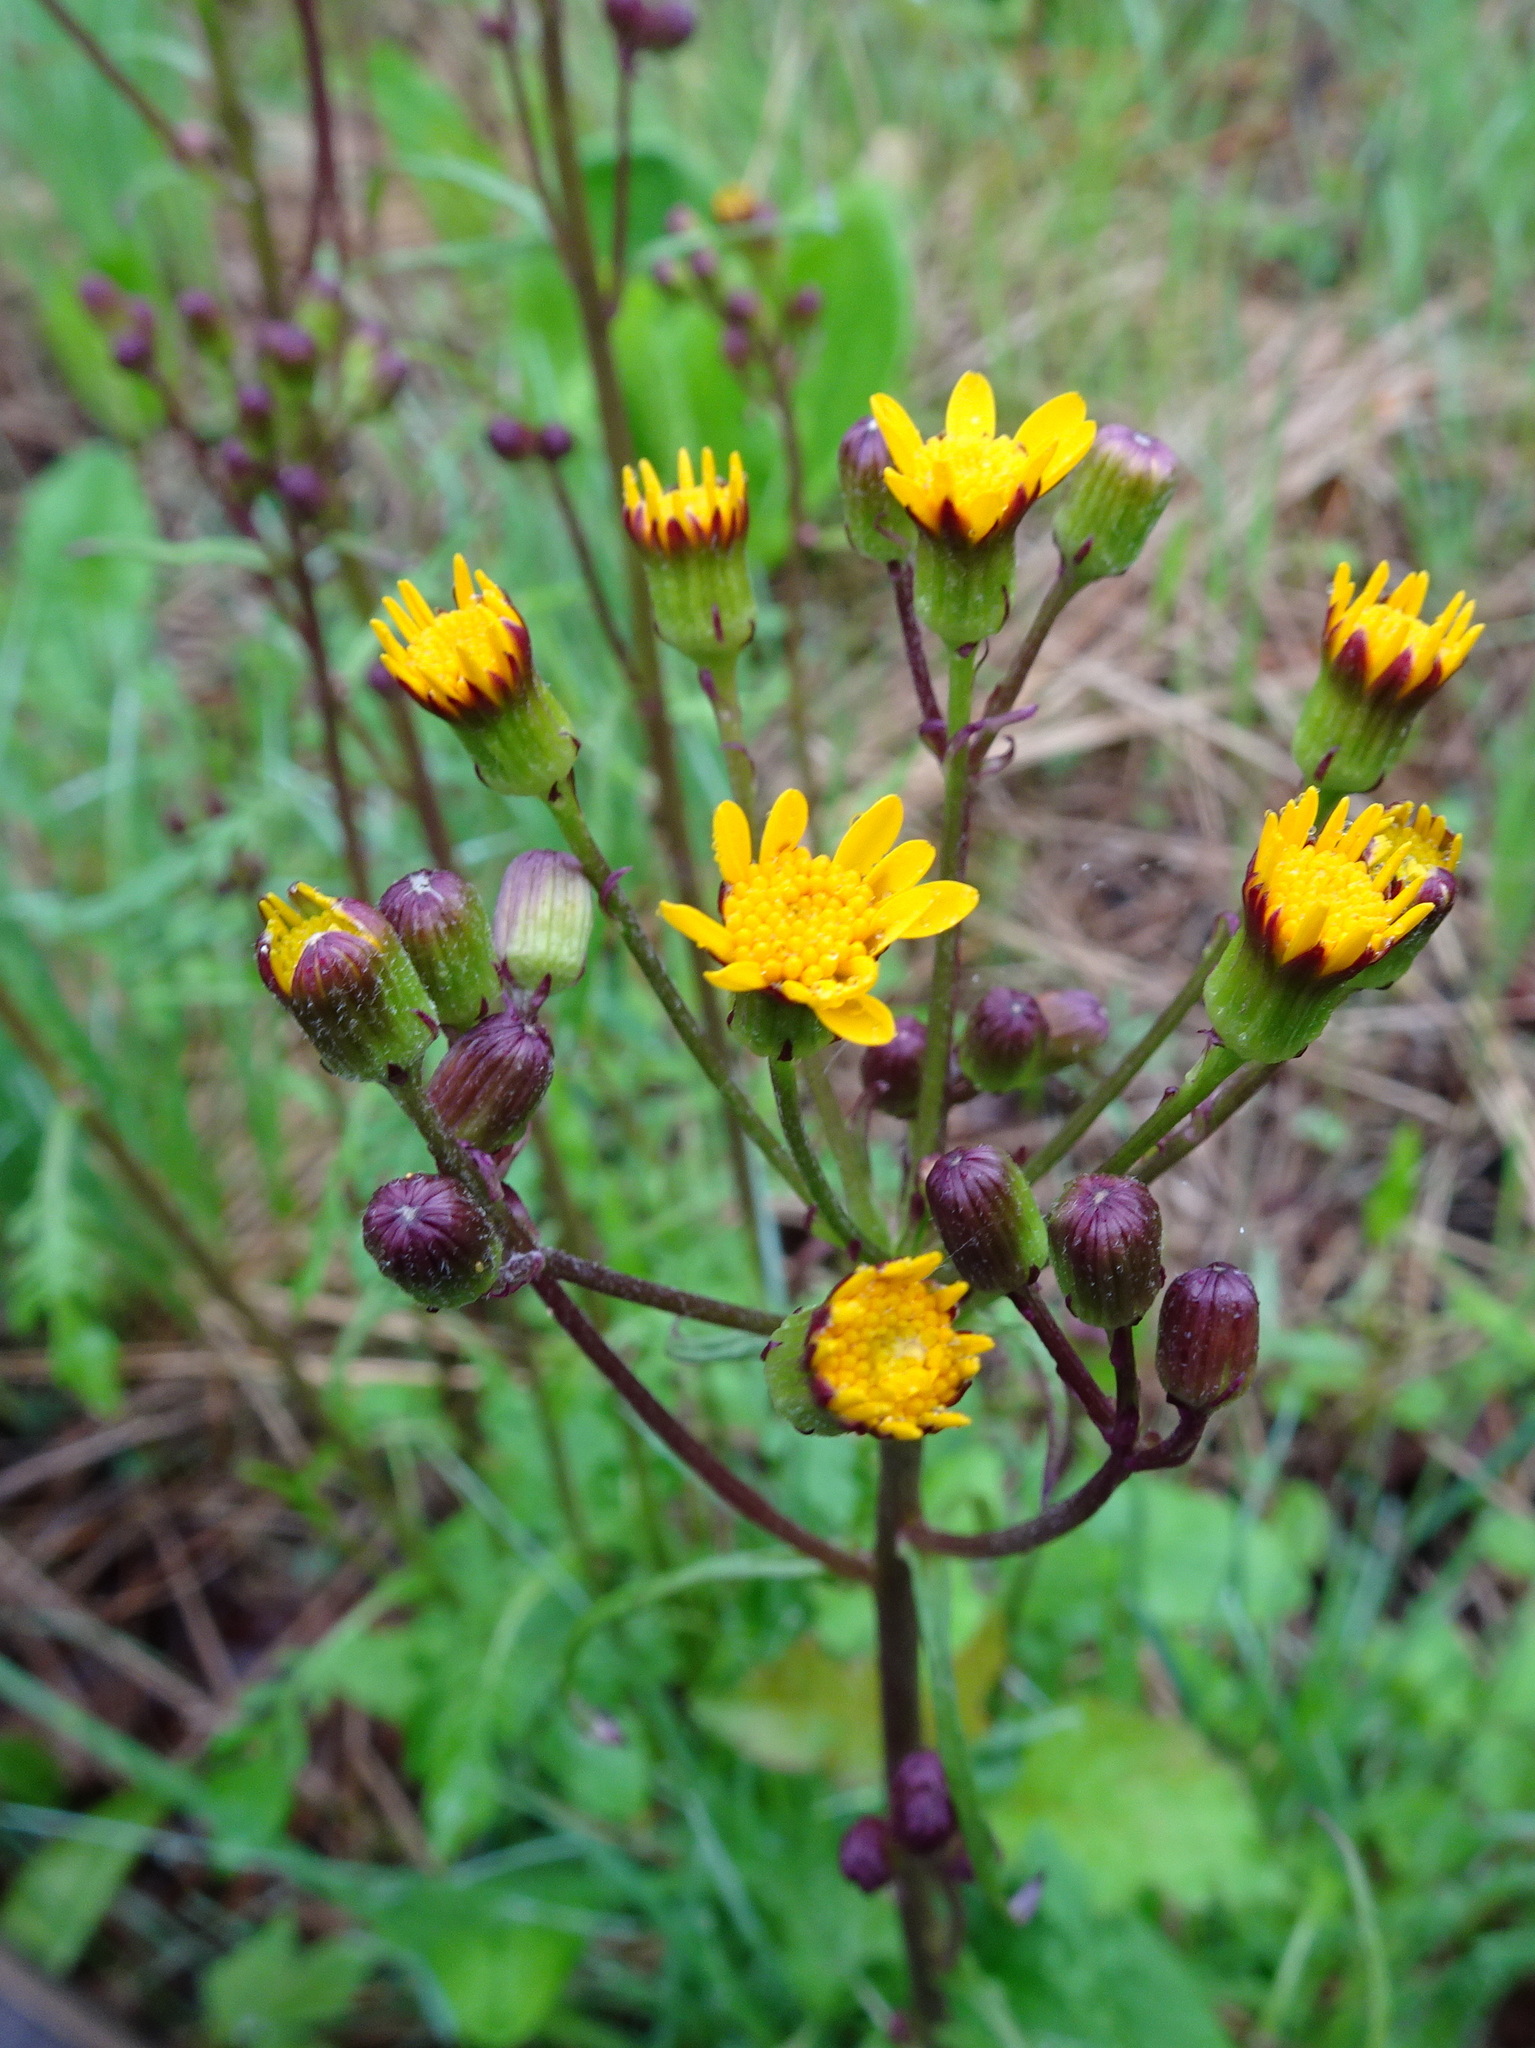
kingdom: Plantae
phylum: Tracheophyta
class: Magnoliopsida
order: Asterales
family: Asteraceae
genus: Packera
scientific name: Packera aurea
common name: Golden groundsel
